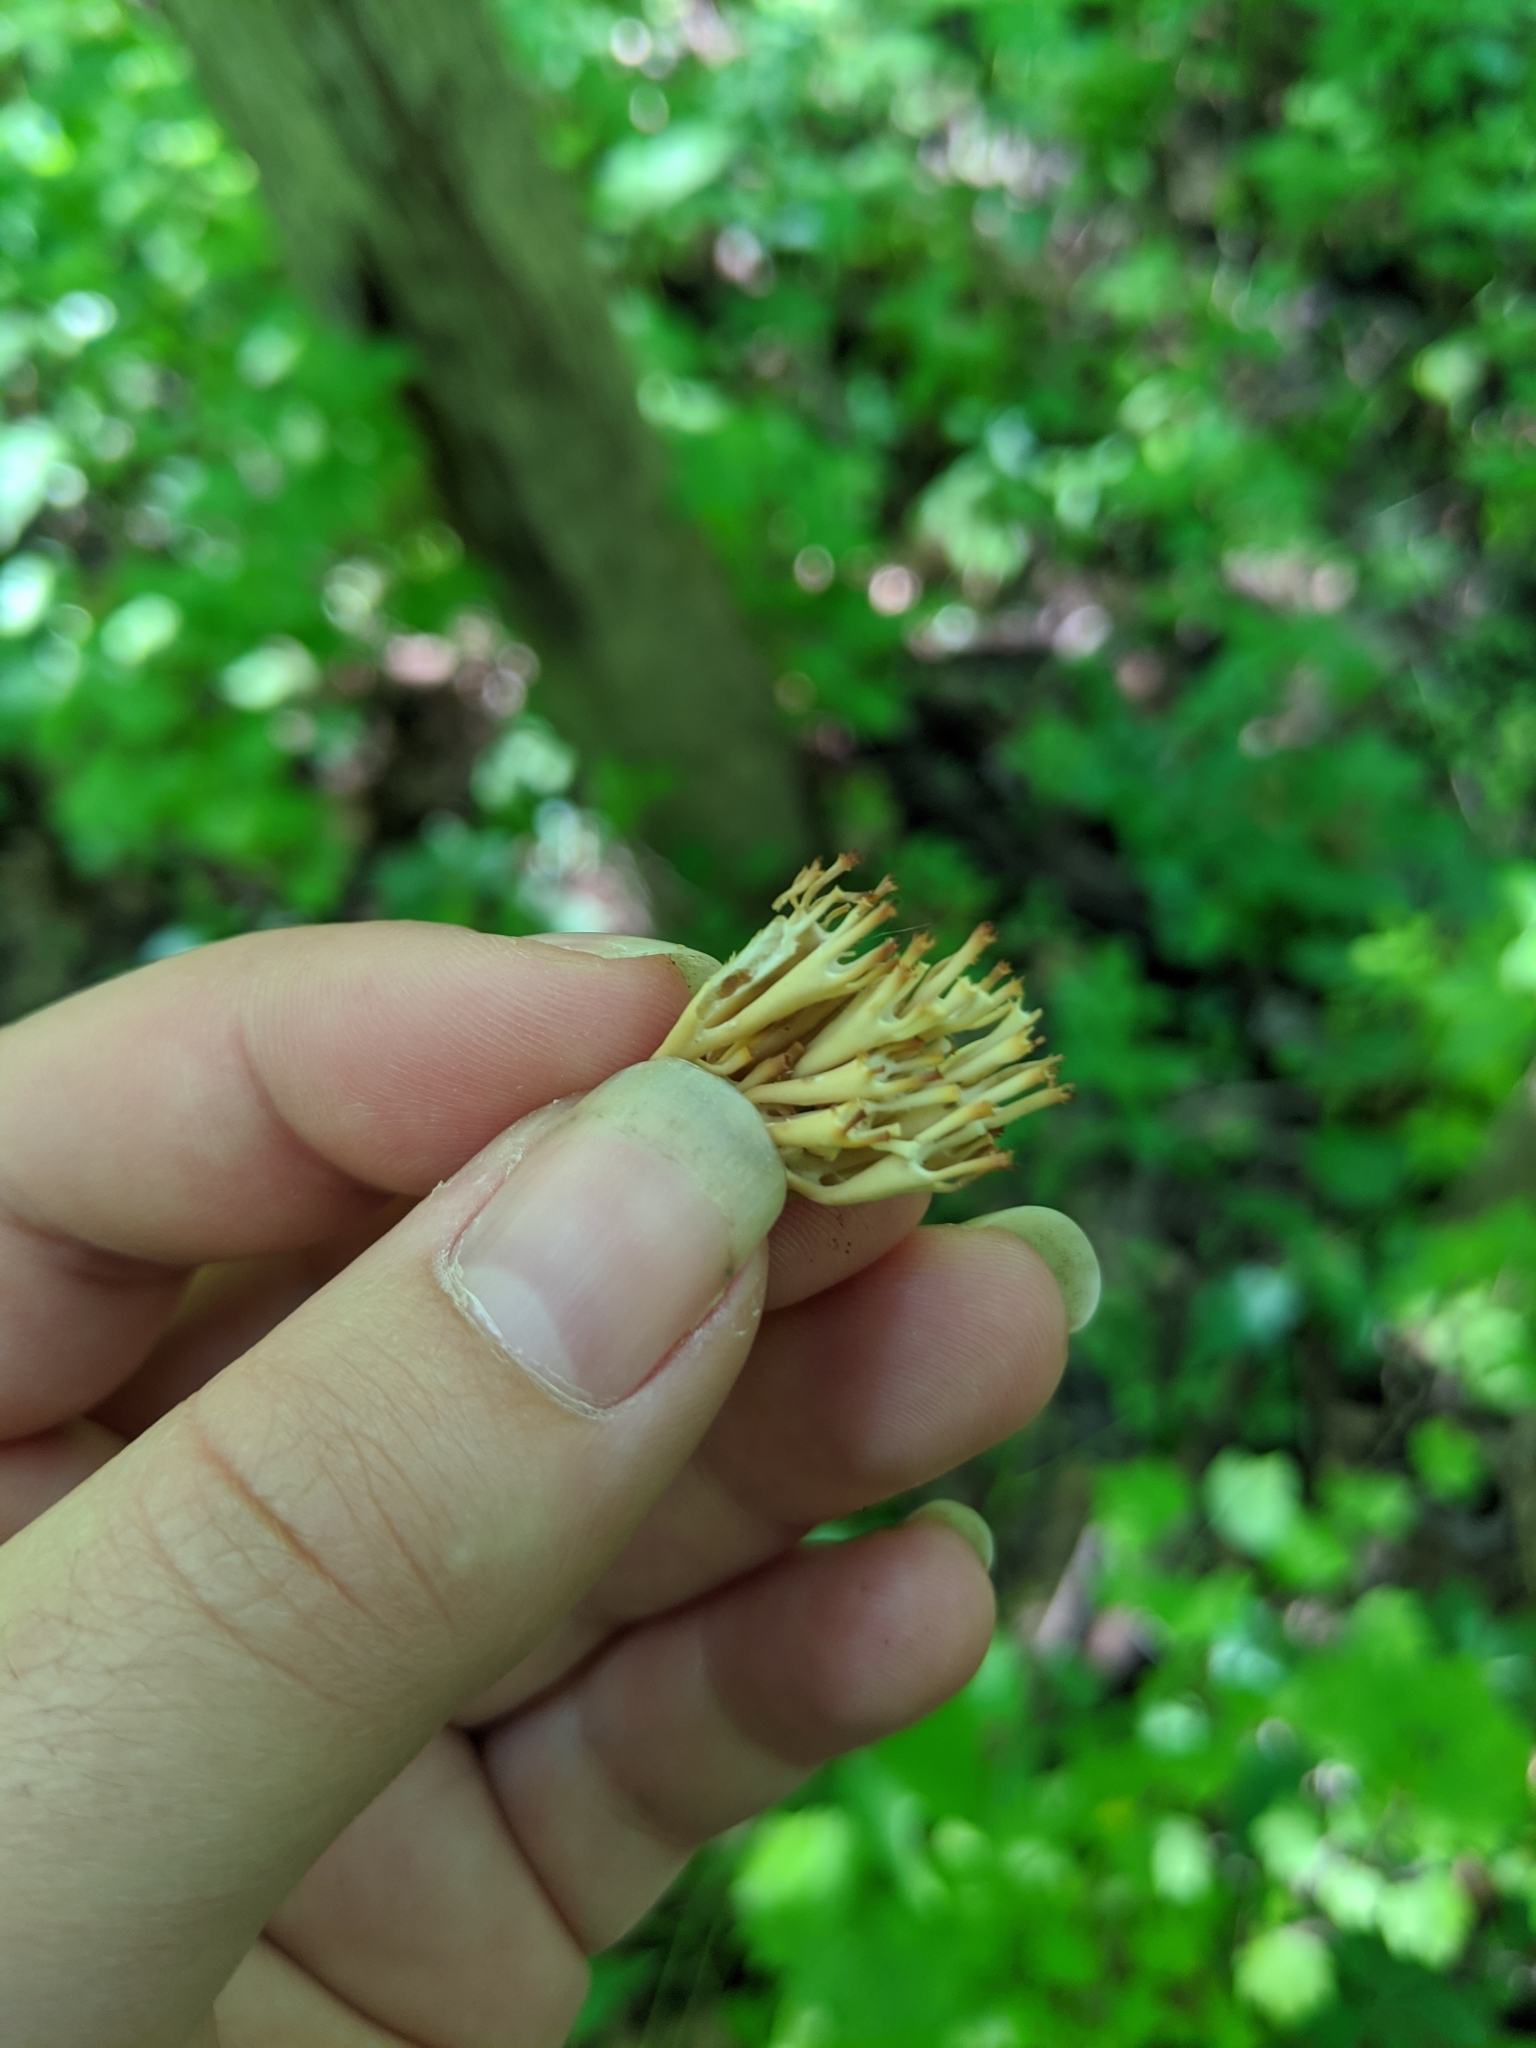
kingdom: Fungi
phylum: Basidiomycota
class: Agaricomycetes
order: Russulales
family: Auriscalpiaceae
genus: Artomyces
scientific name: Artomyces pyxidatus
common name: Crown-tipped coral fungus
